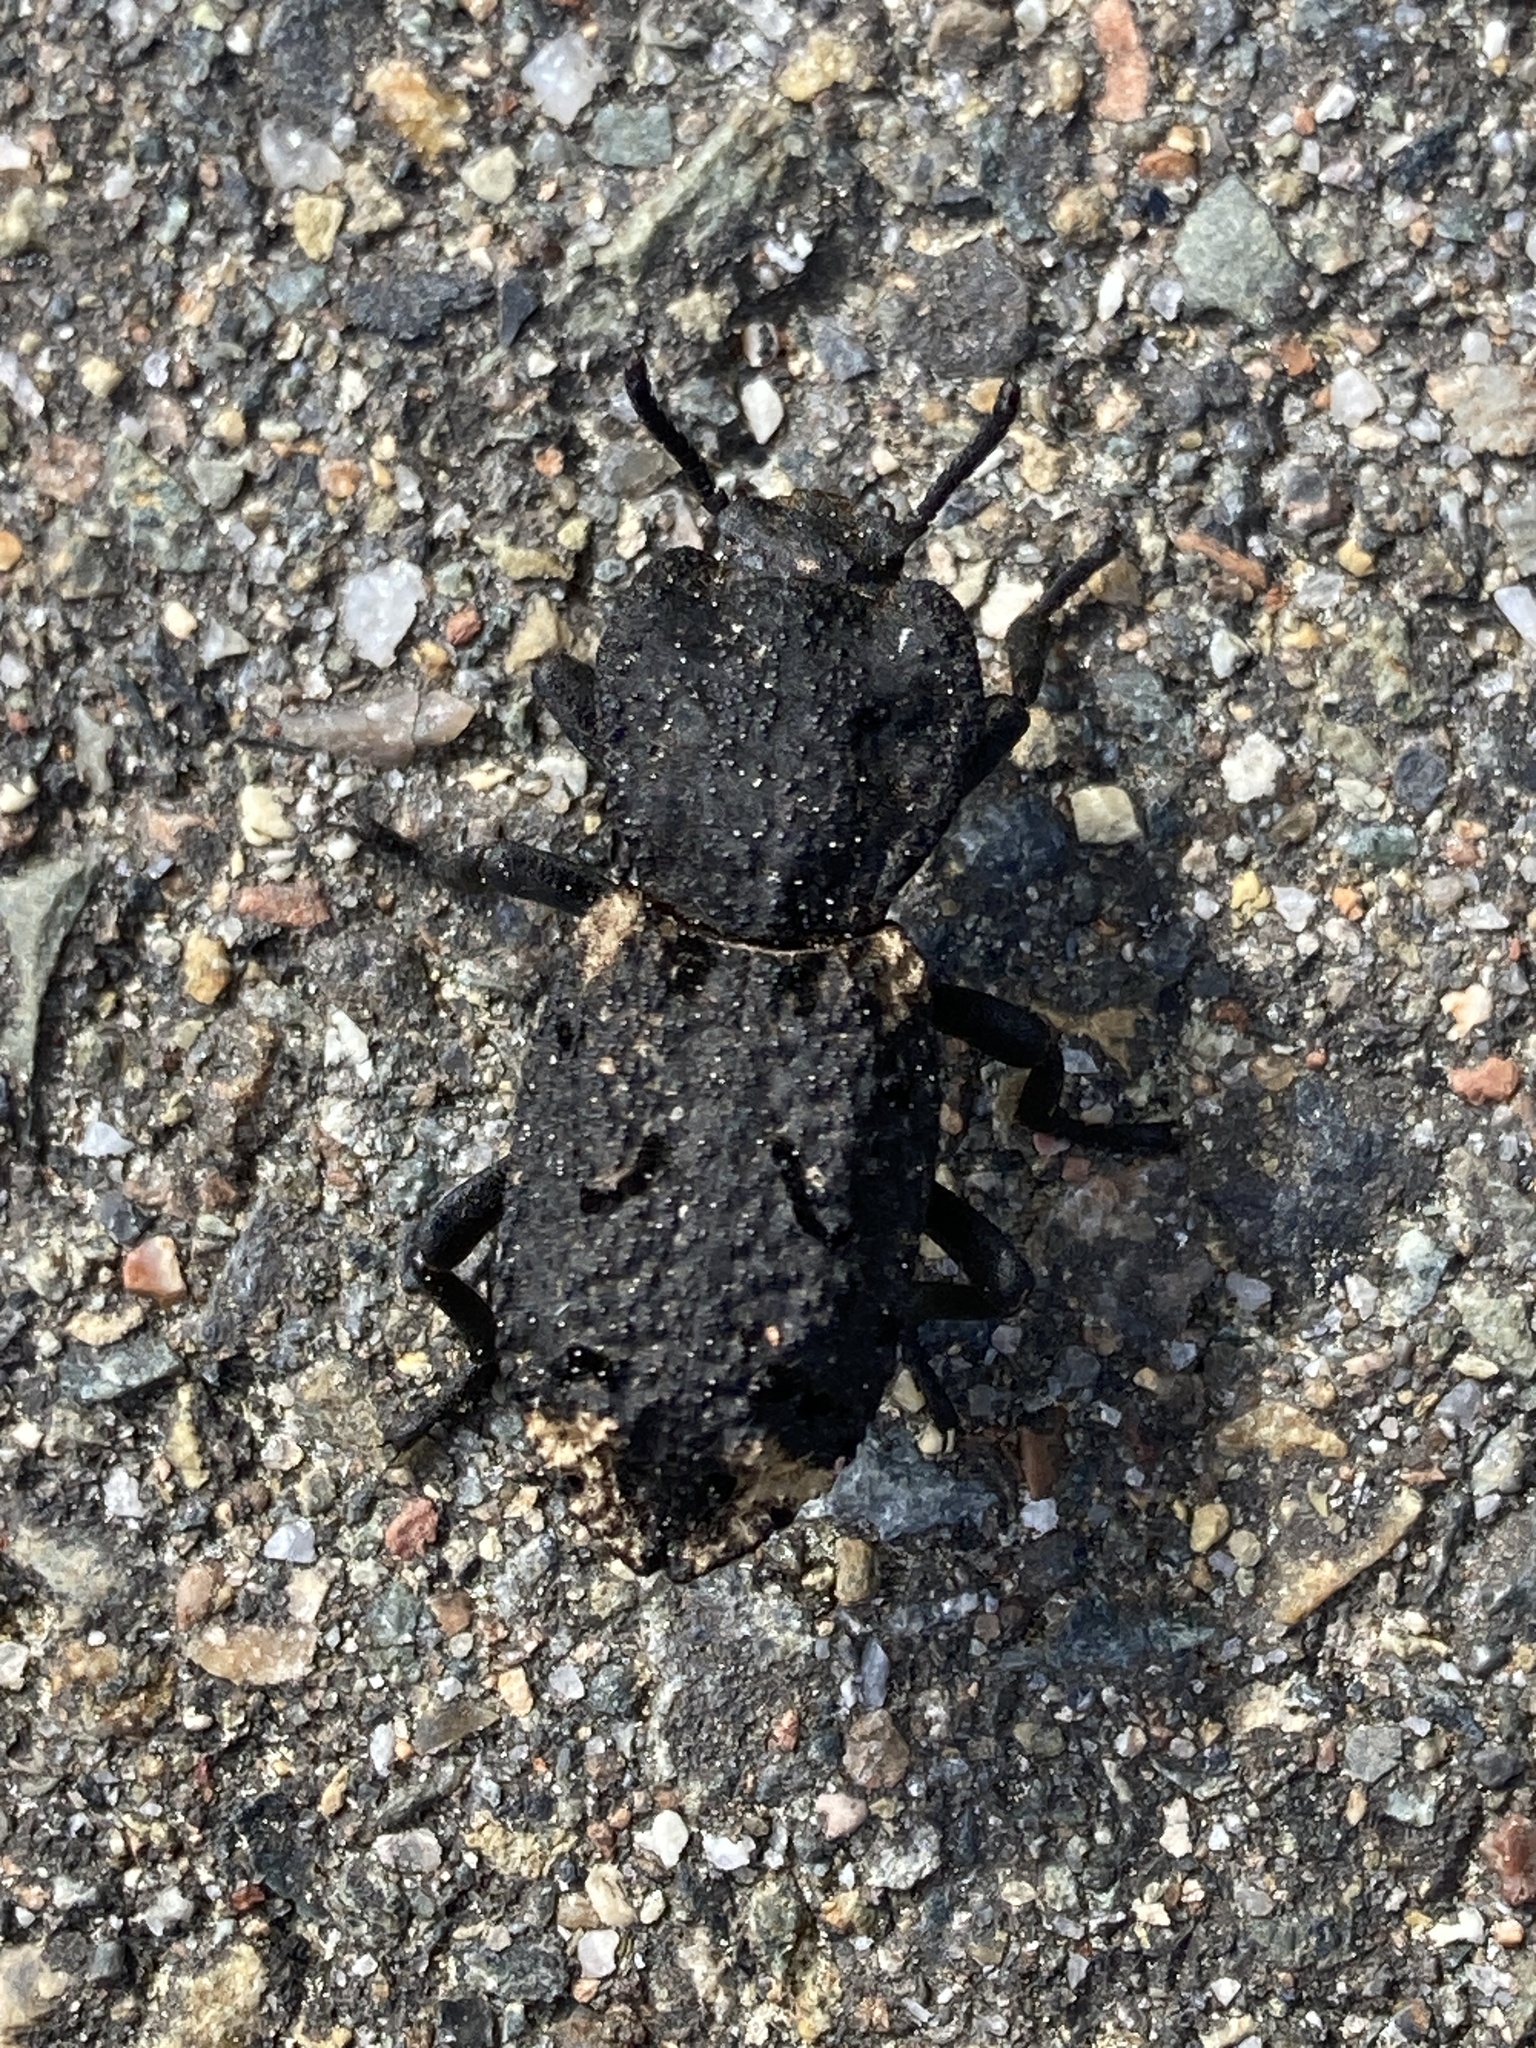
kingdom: Animalia
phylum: Arthropoda
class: Insecta
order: Coleoptera
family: Zopheridae
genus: Phloeodes
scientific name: Phloeodes diabolicus
